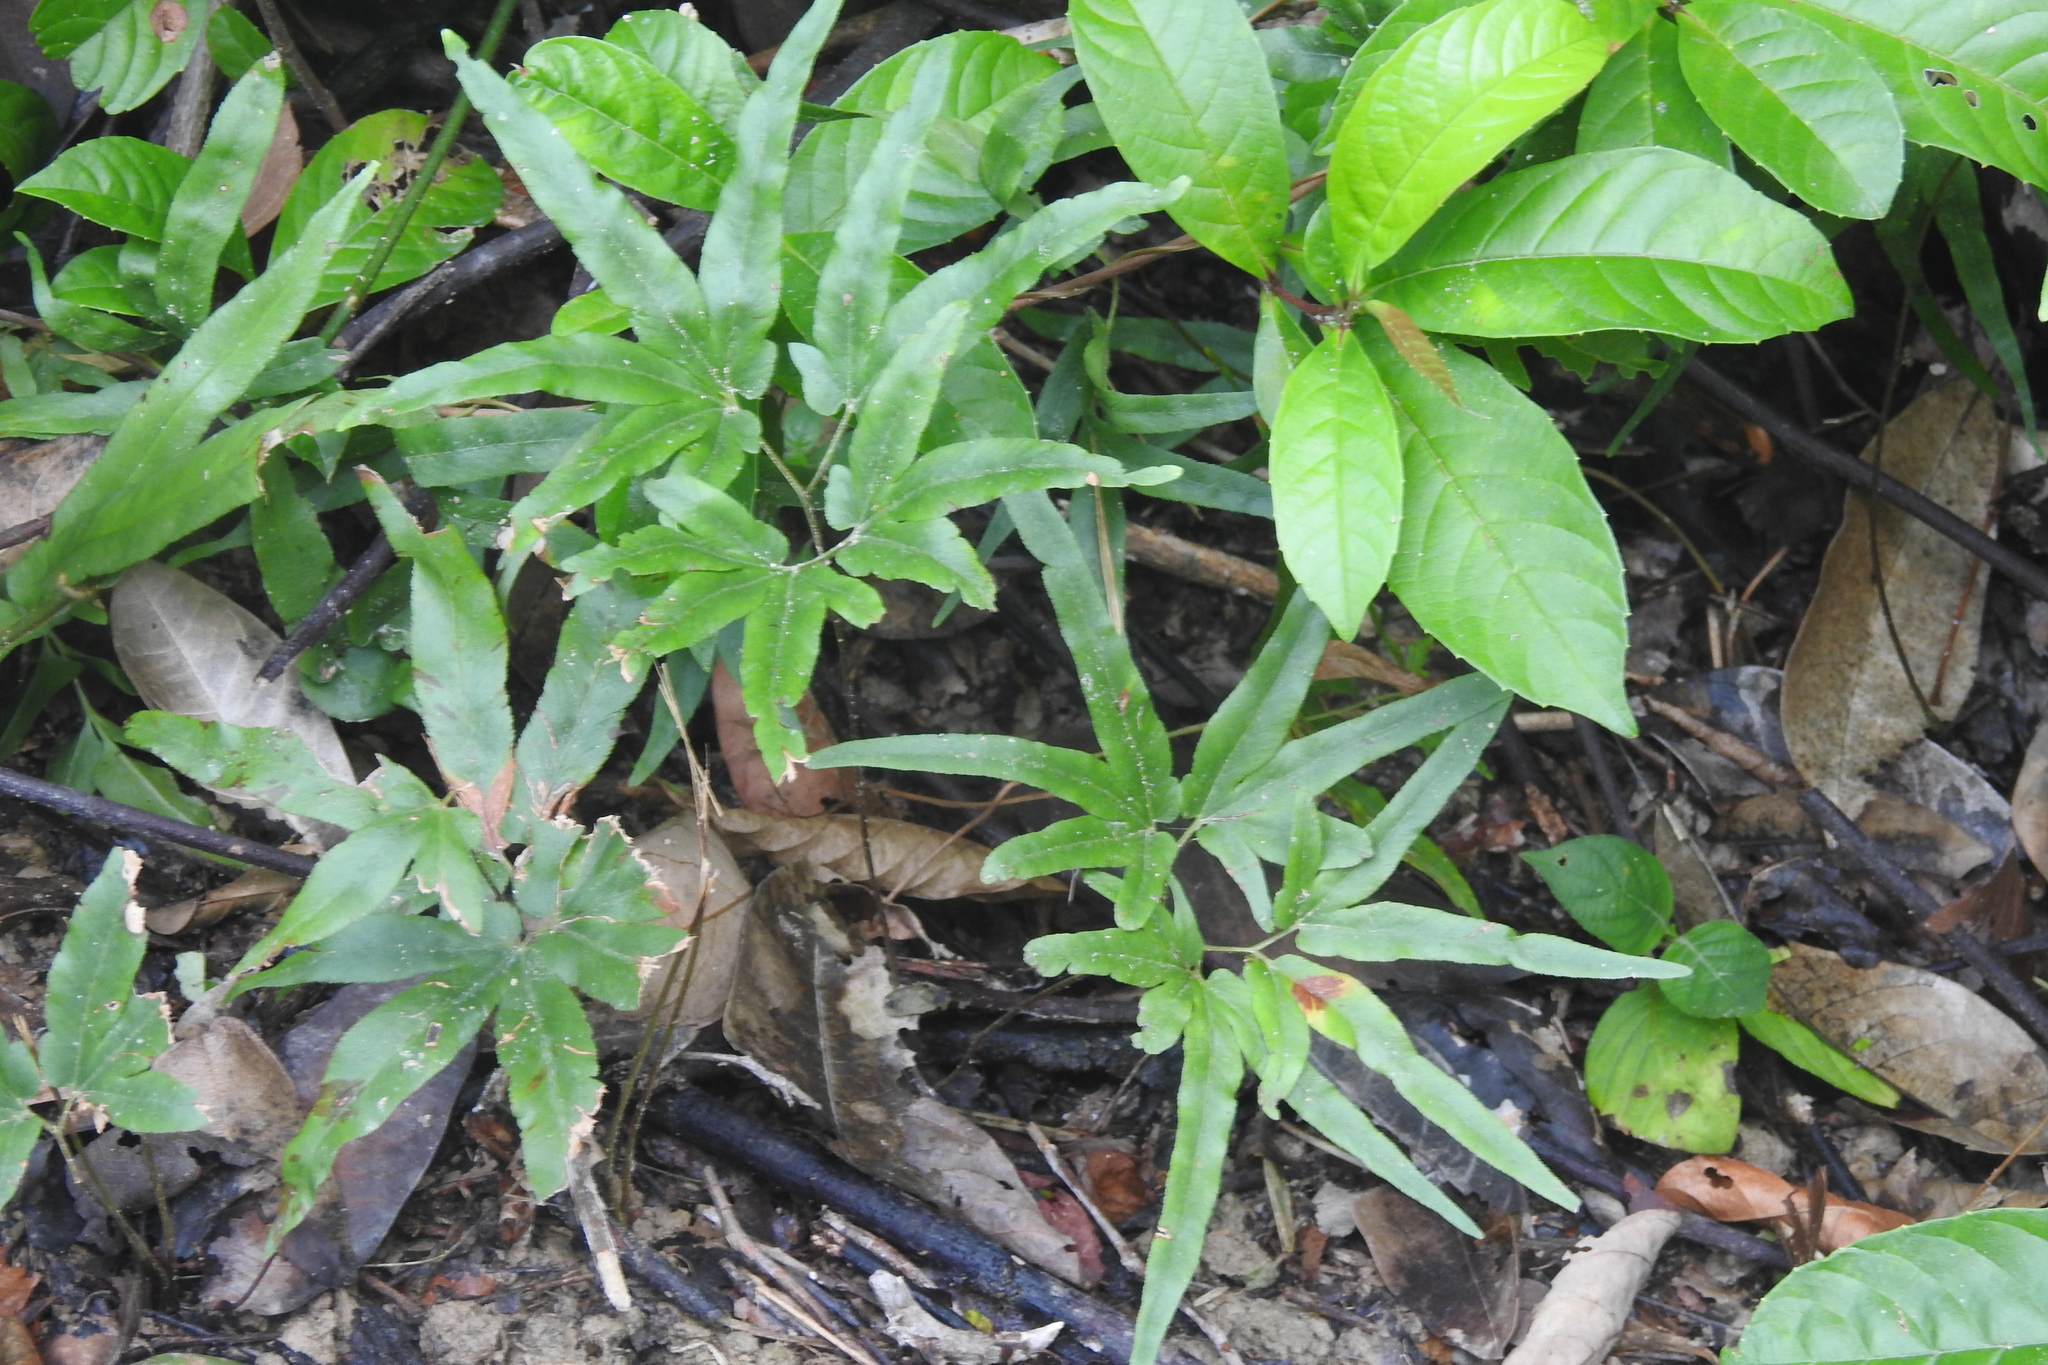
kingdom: Plantae
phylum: Tracheophyta
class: Polypodiopsida
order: Schizaeales
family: Lygodiaceae
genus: Lygodium
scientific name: Lygodium flexuosum
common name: Maidenhair creeper
